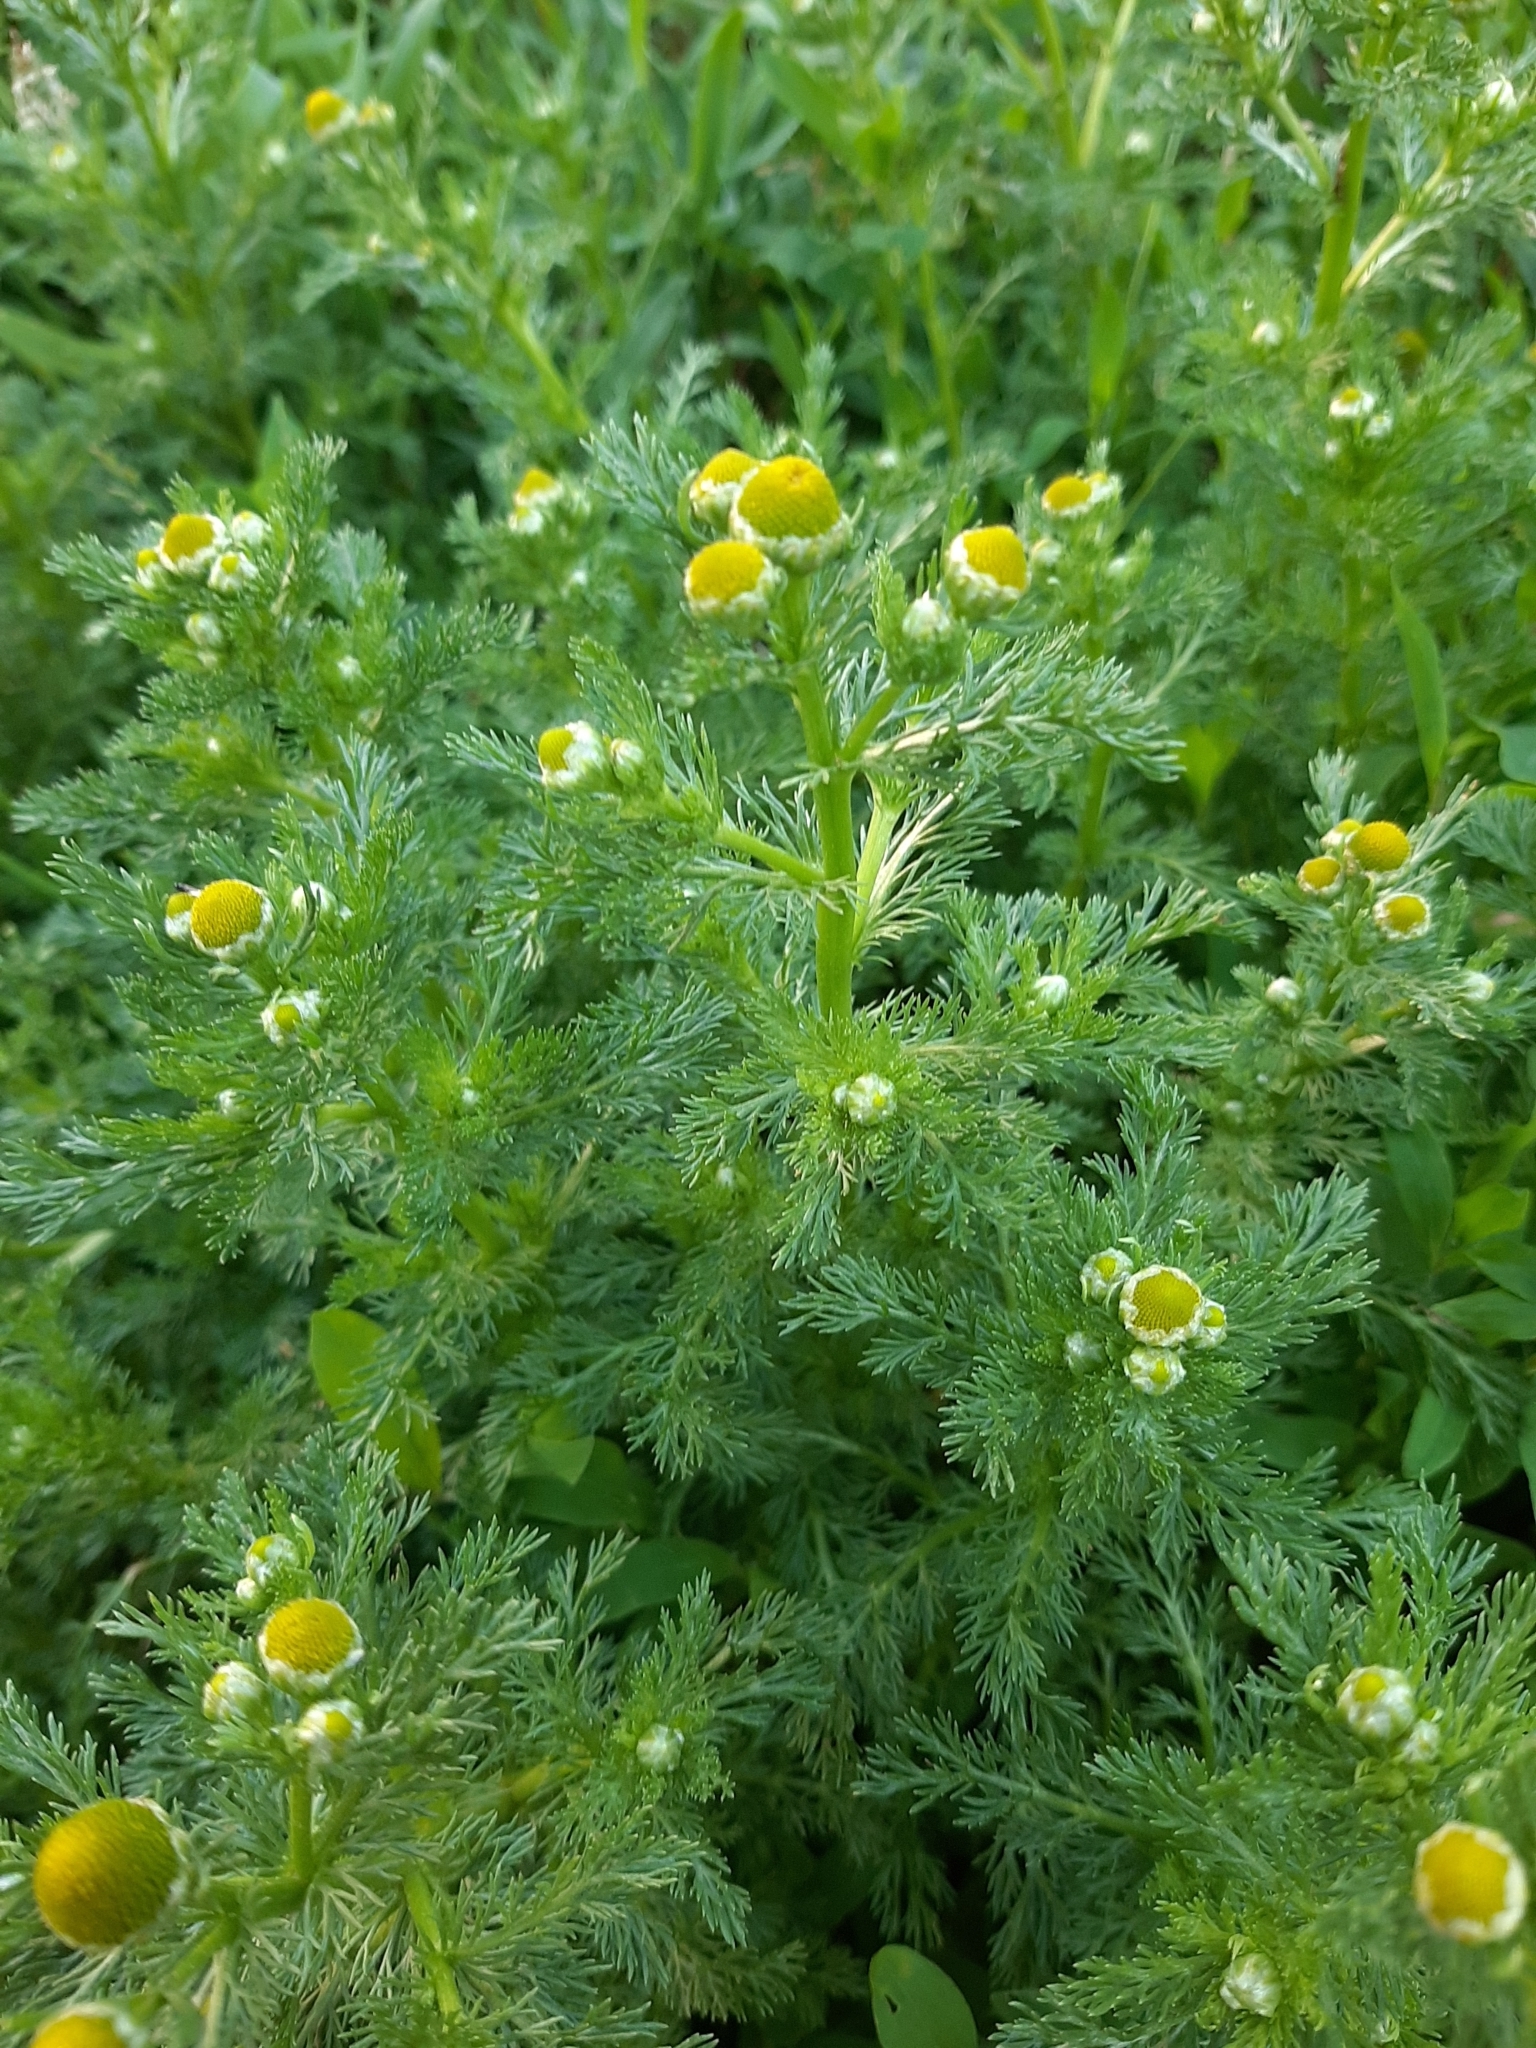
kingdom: Plantae
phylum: Tracheophyta
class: Magnoliopsida
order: Asterales
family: Asteraceae
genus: Matricaria
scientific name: Matricaria discoidea
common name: Disc mayweed
